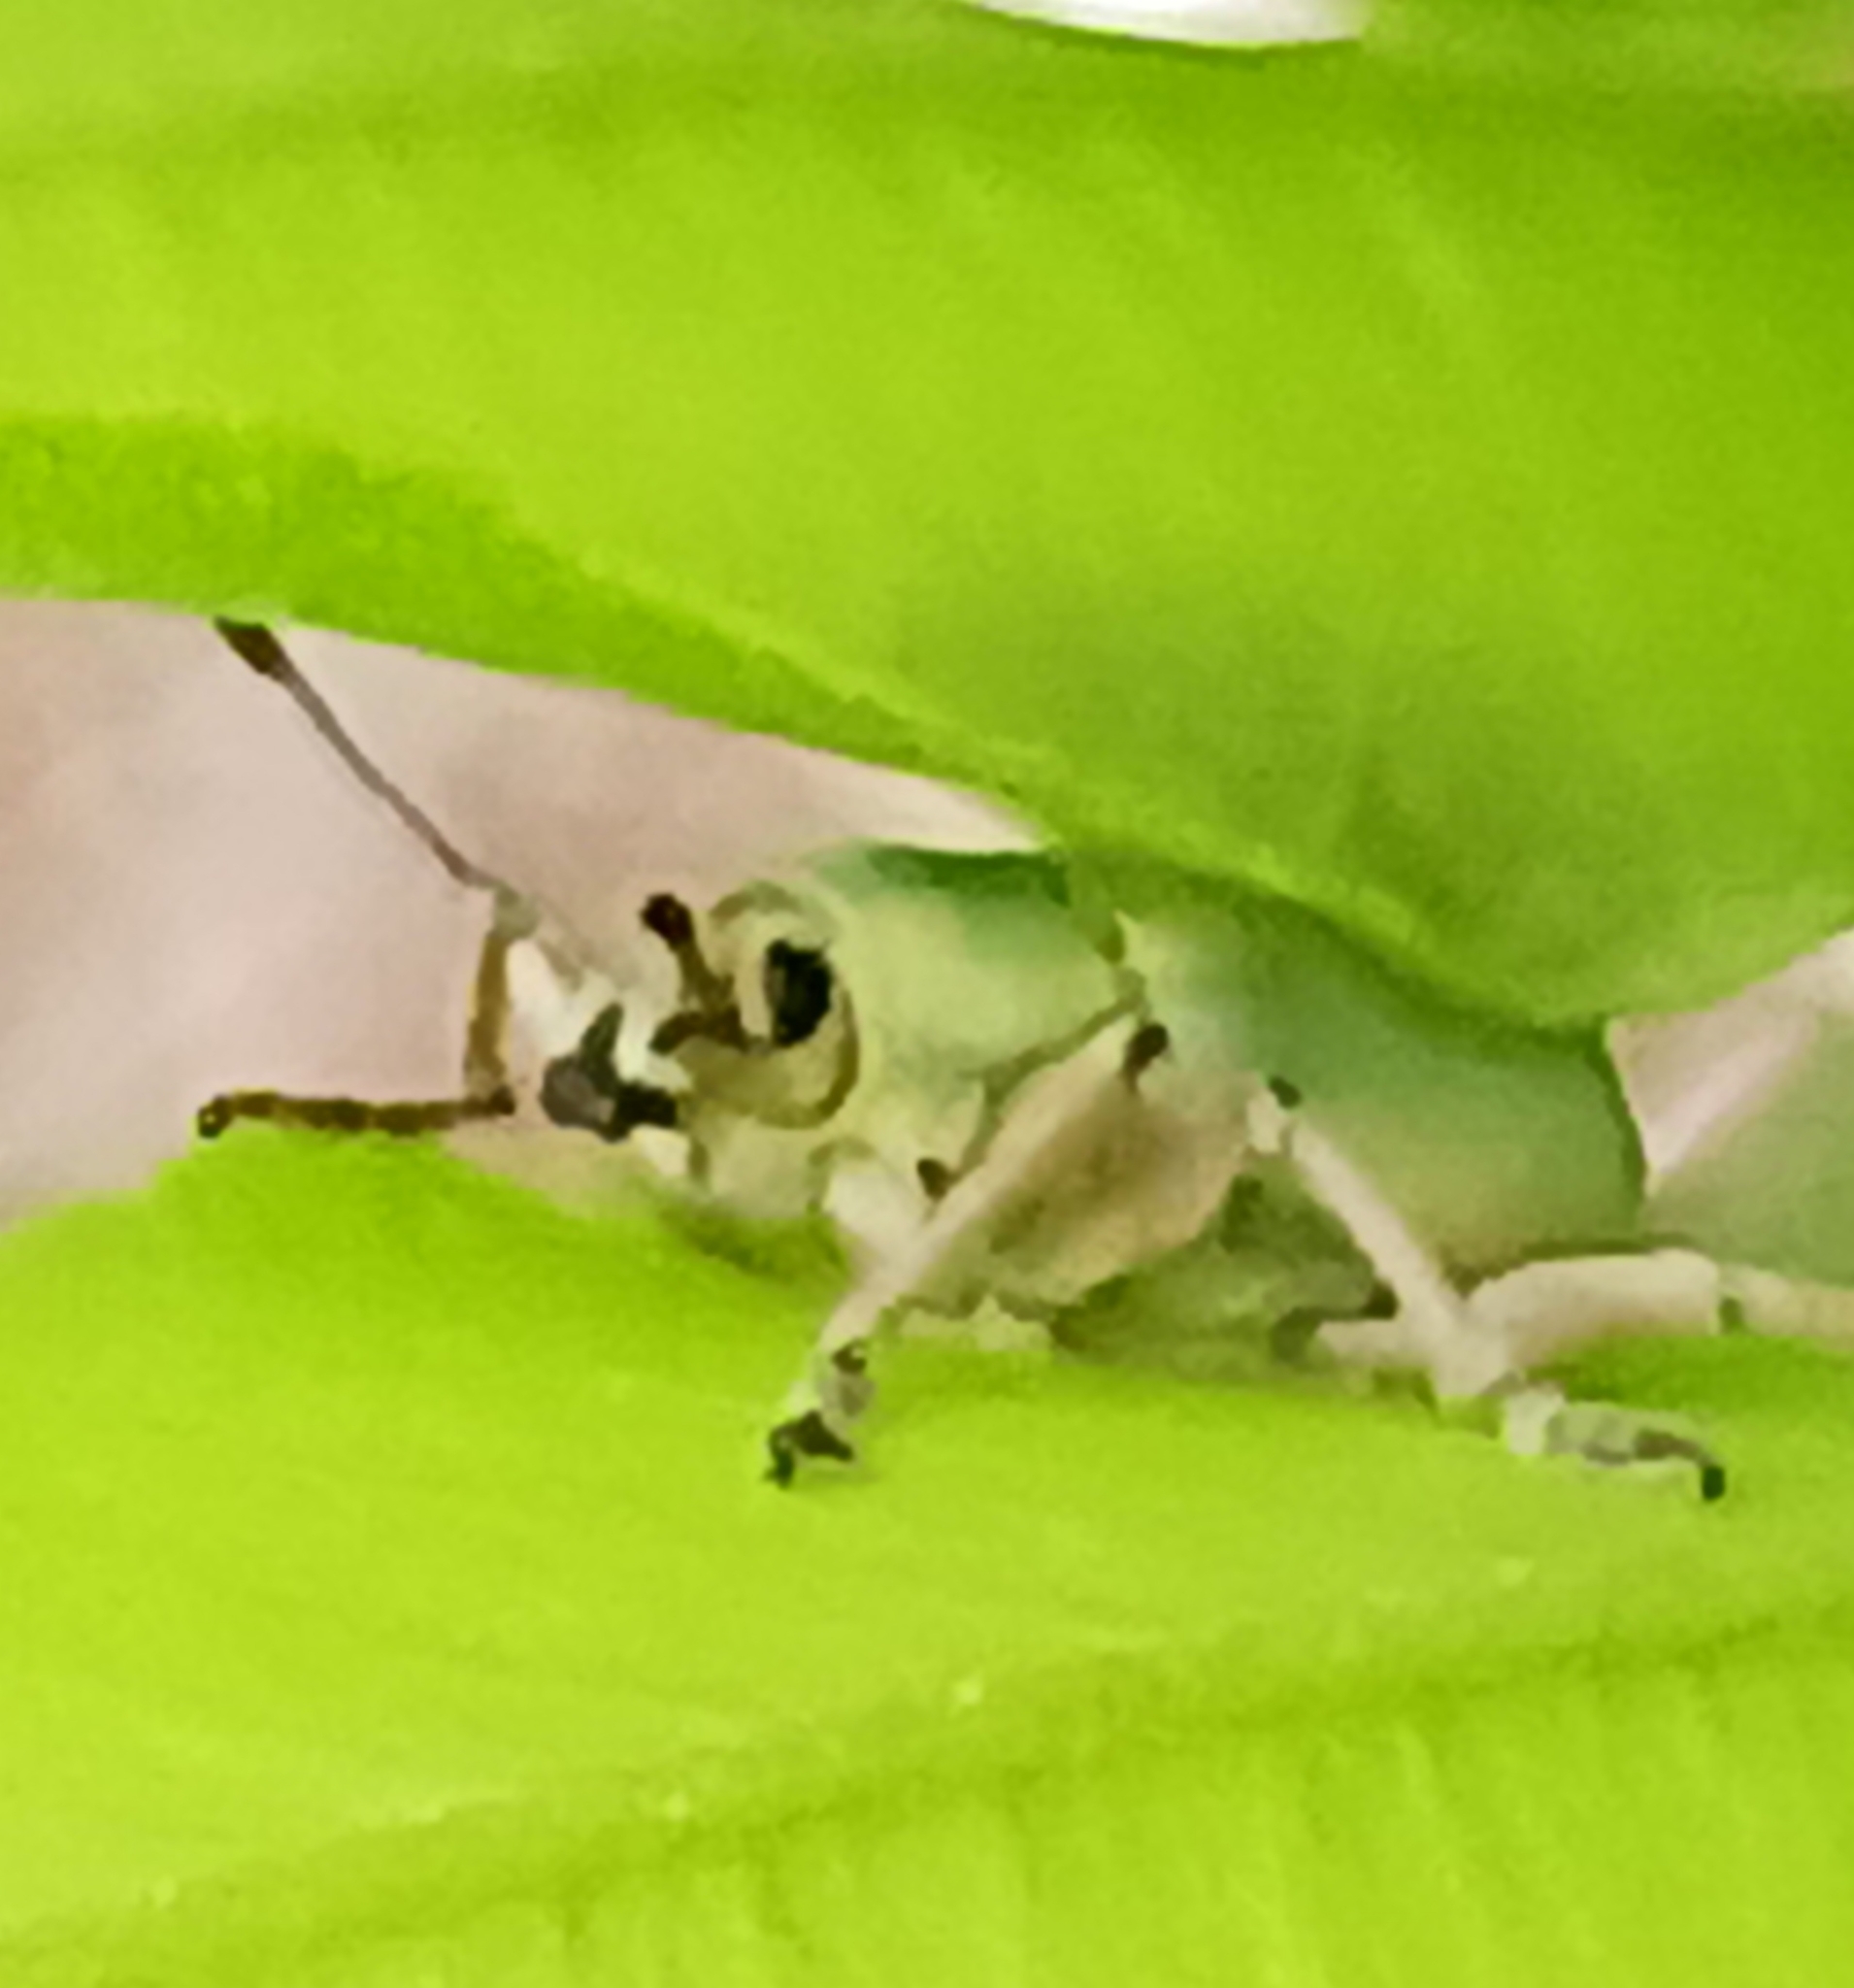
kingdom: Animalia
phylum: Arthropoda
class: Insecta
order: Coleoptera
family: Curculionidae
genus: Pachnaeus
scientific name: Pachnaeus litus
